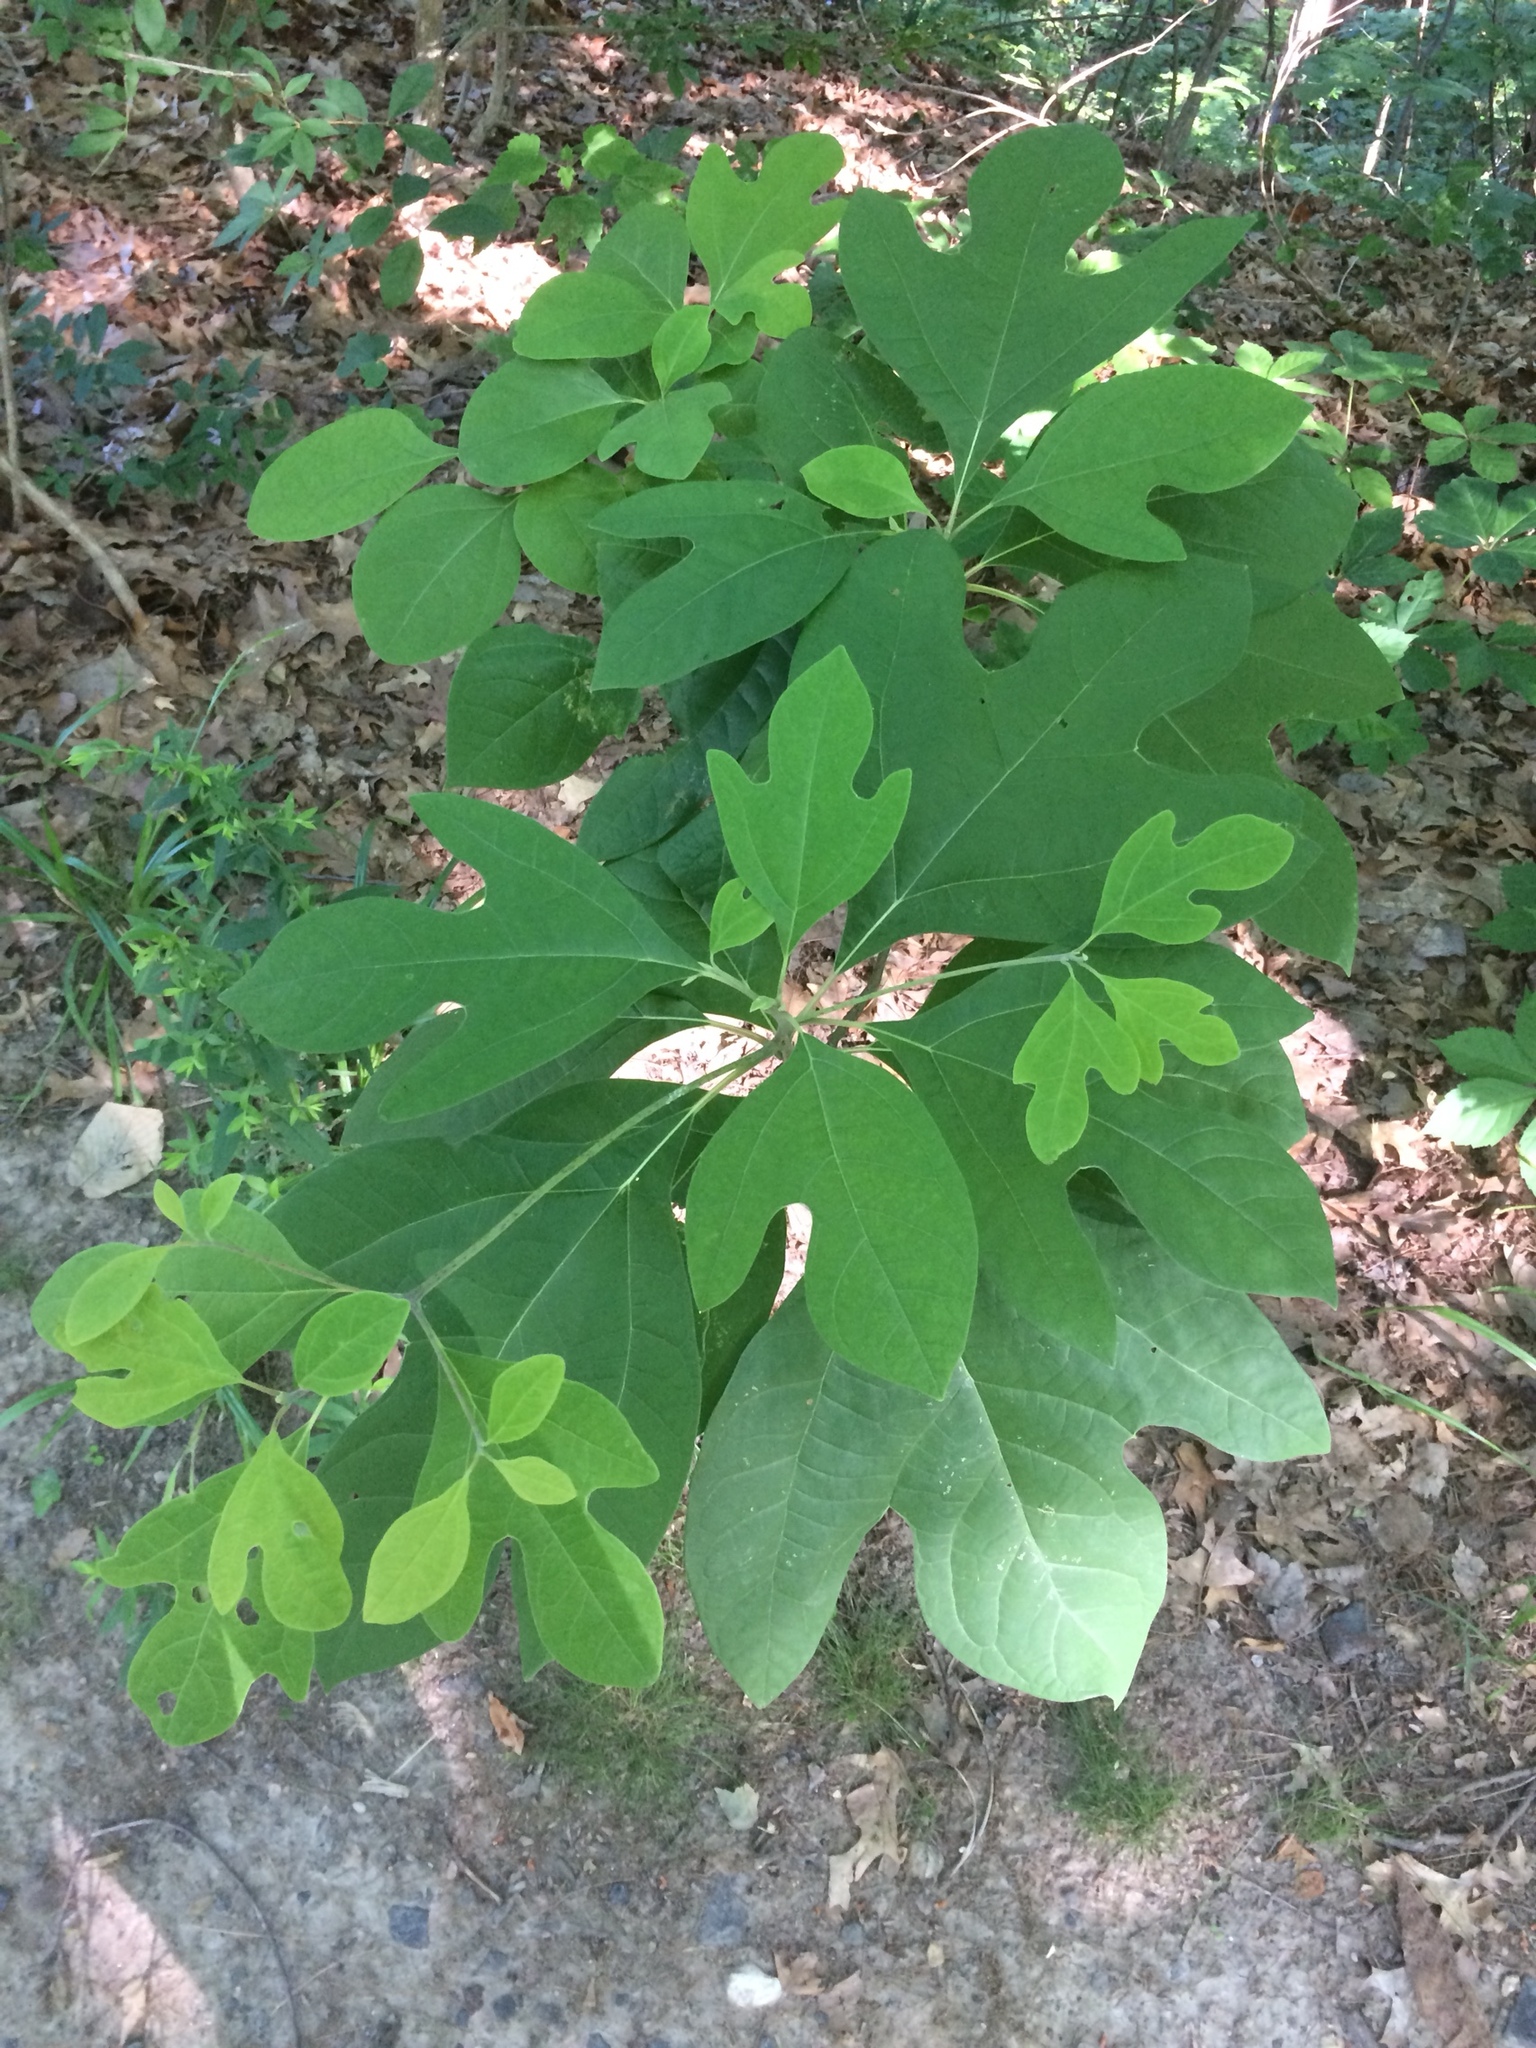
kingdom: Plantae
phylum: Tracheophyta
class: Magnoliopsida
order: Laurales
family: Lauraceae
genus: Sassafras
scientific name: Sassafras albidum
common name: Sassafras
